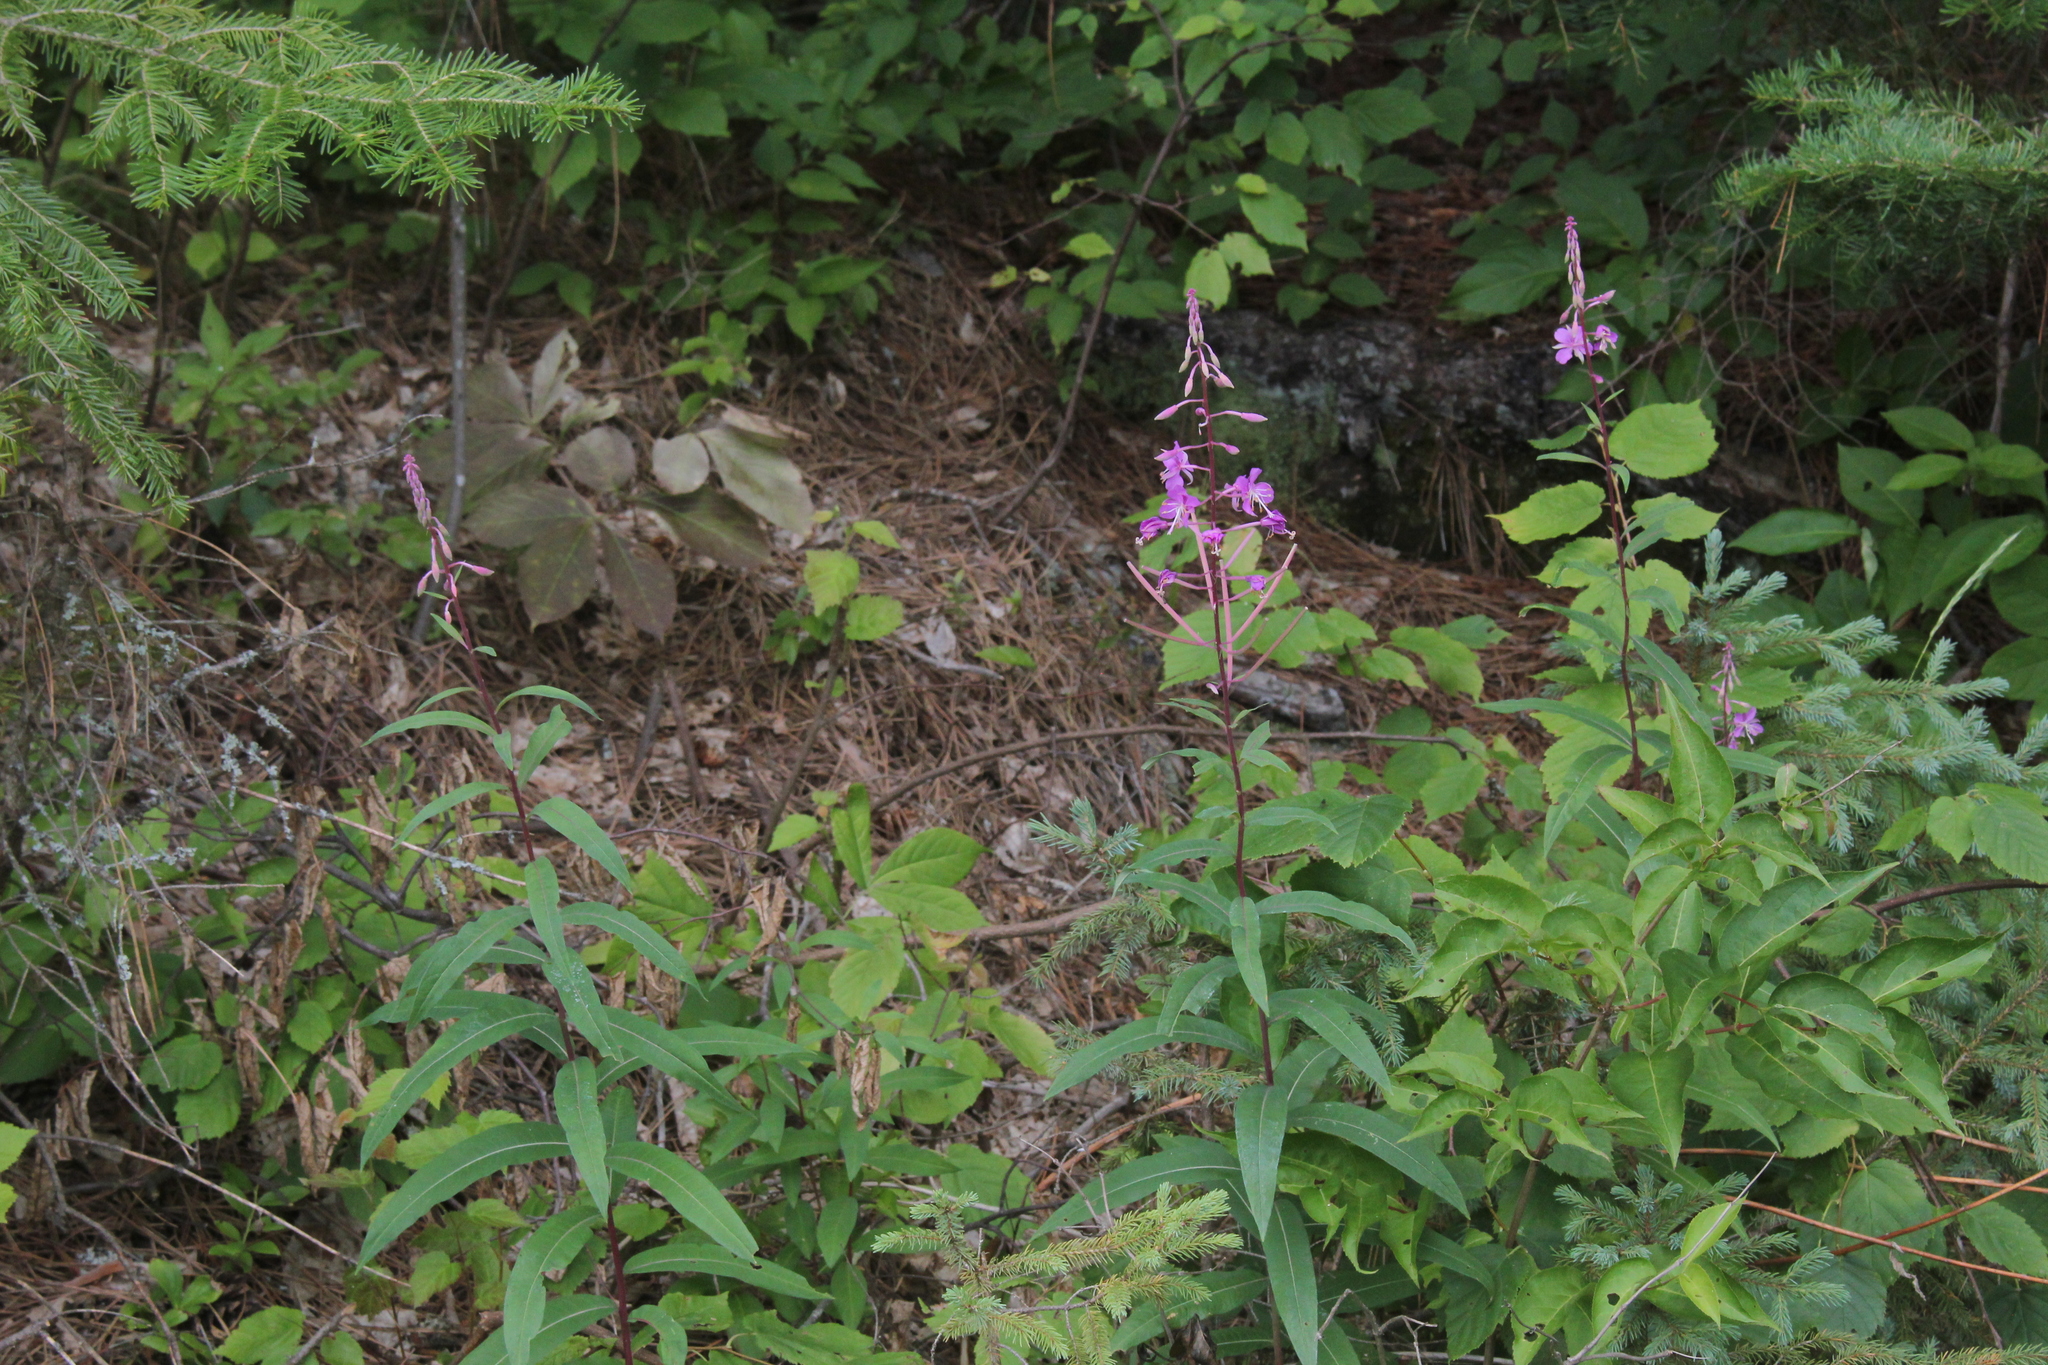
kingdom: Plantae
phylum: Tracheophyta
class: Magnoliopsida
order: Myrtales
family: Onagraceae
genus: Chamaenerion
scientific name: Chamaenerion angustifolium
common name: Fireweed
